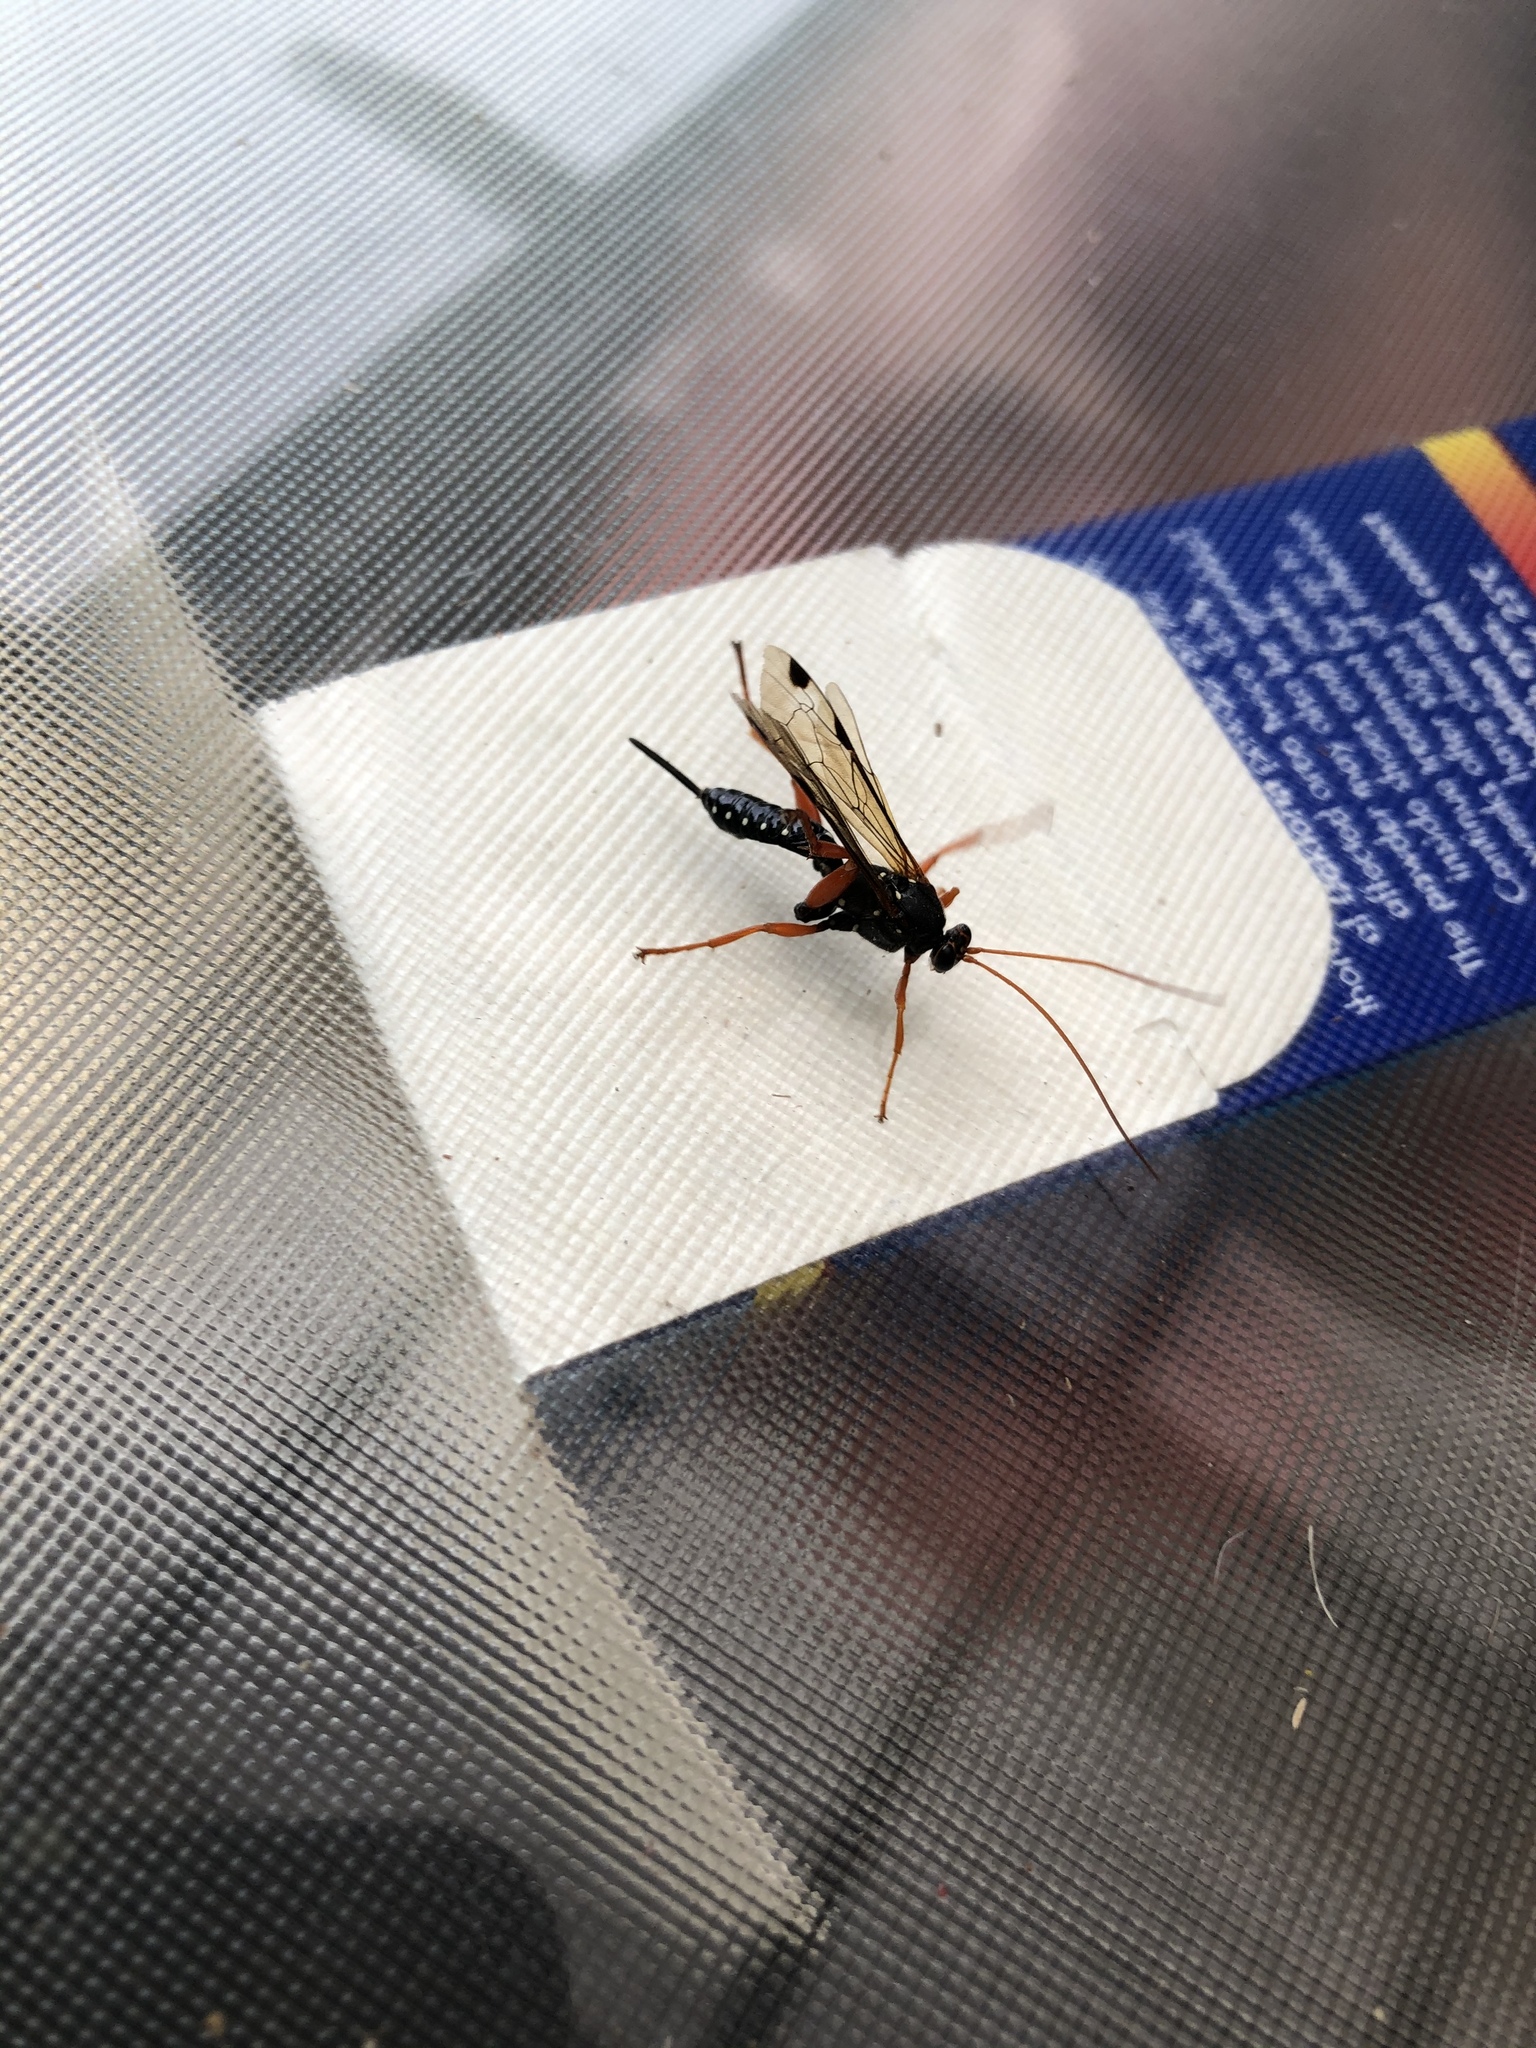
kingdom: Animalia
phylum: Arthropoda
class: Insecta
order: Hymenoptera
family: Ichneumonidae
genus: Echthromorpha
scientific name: Echthromorpha intricatoria
